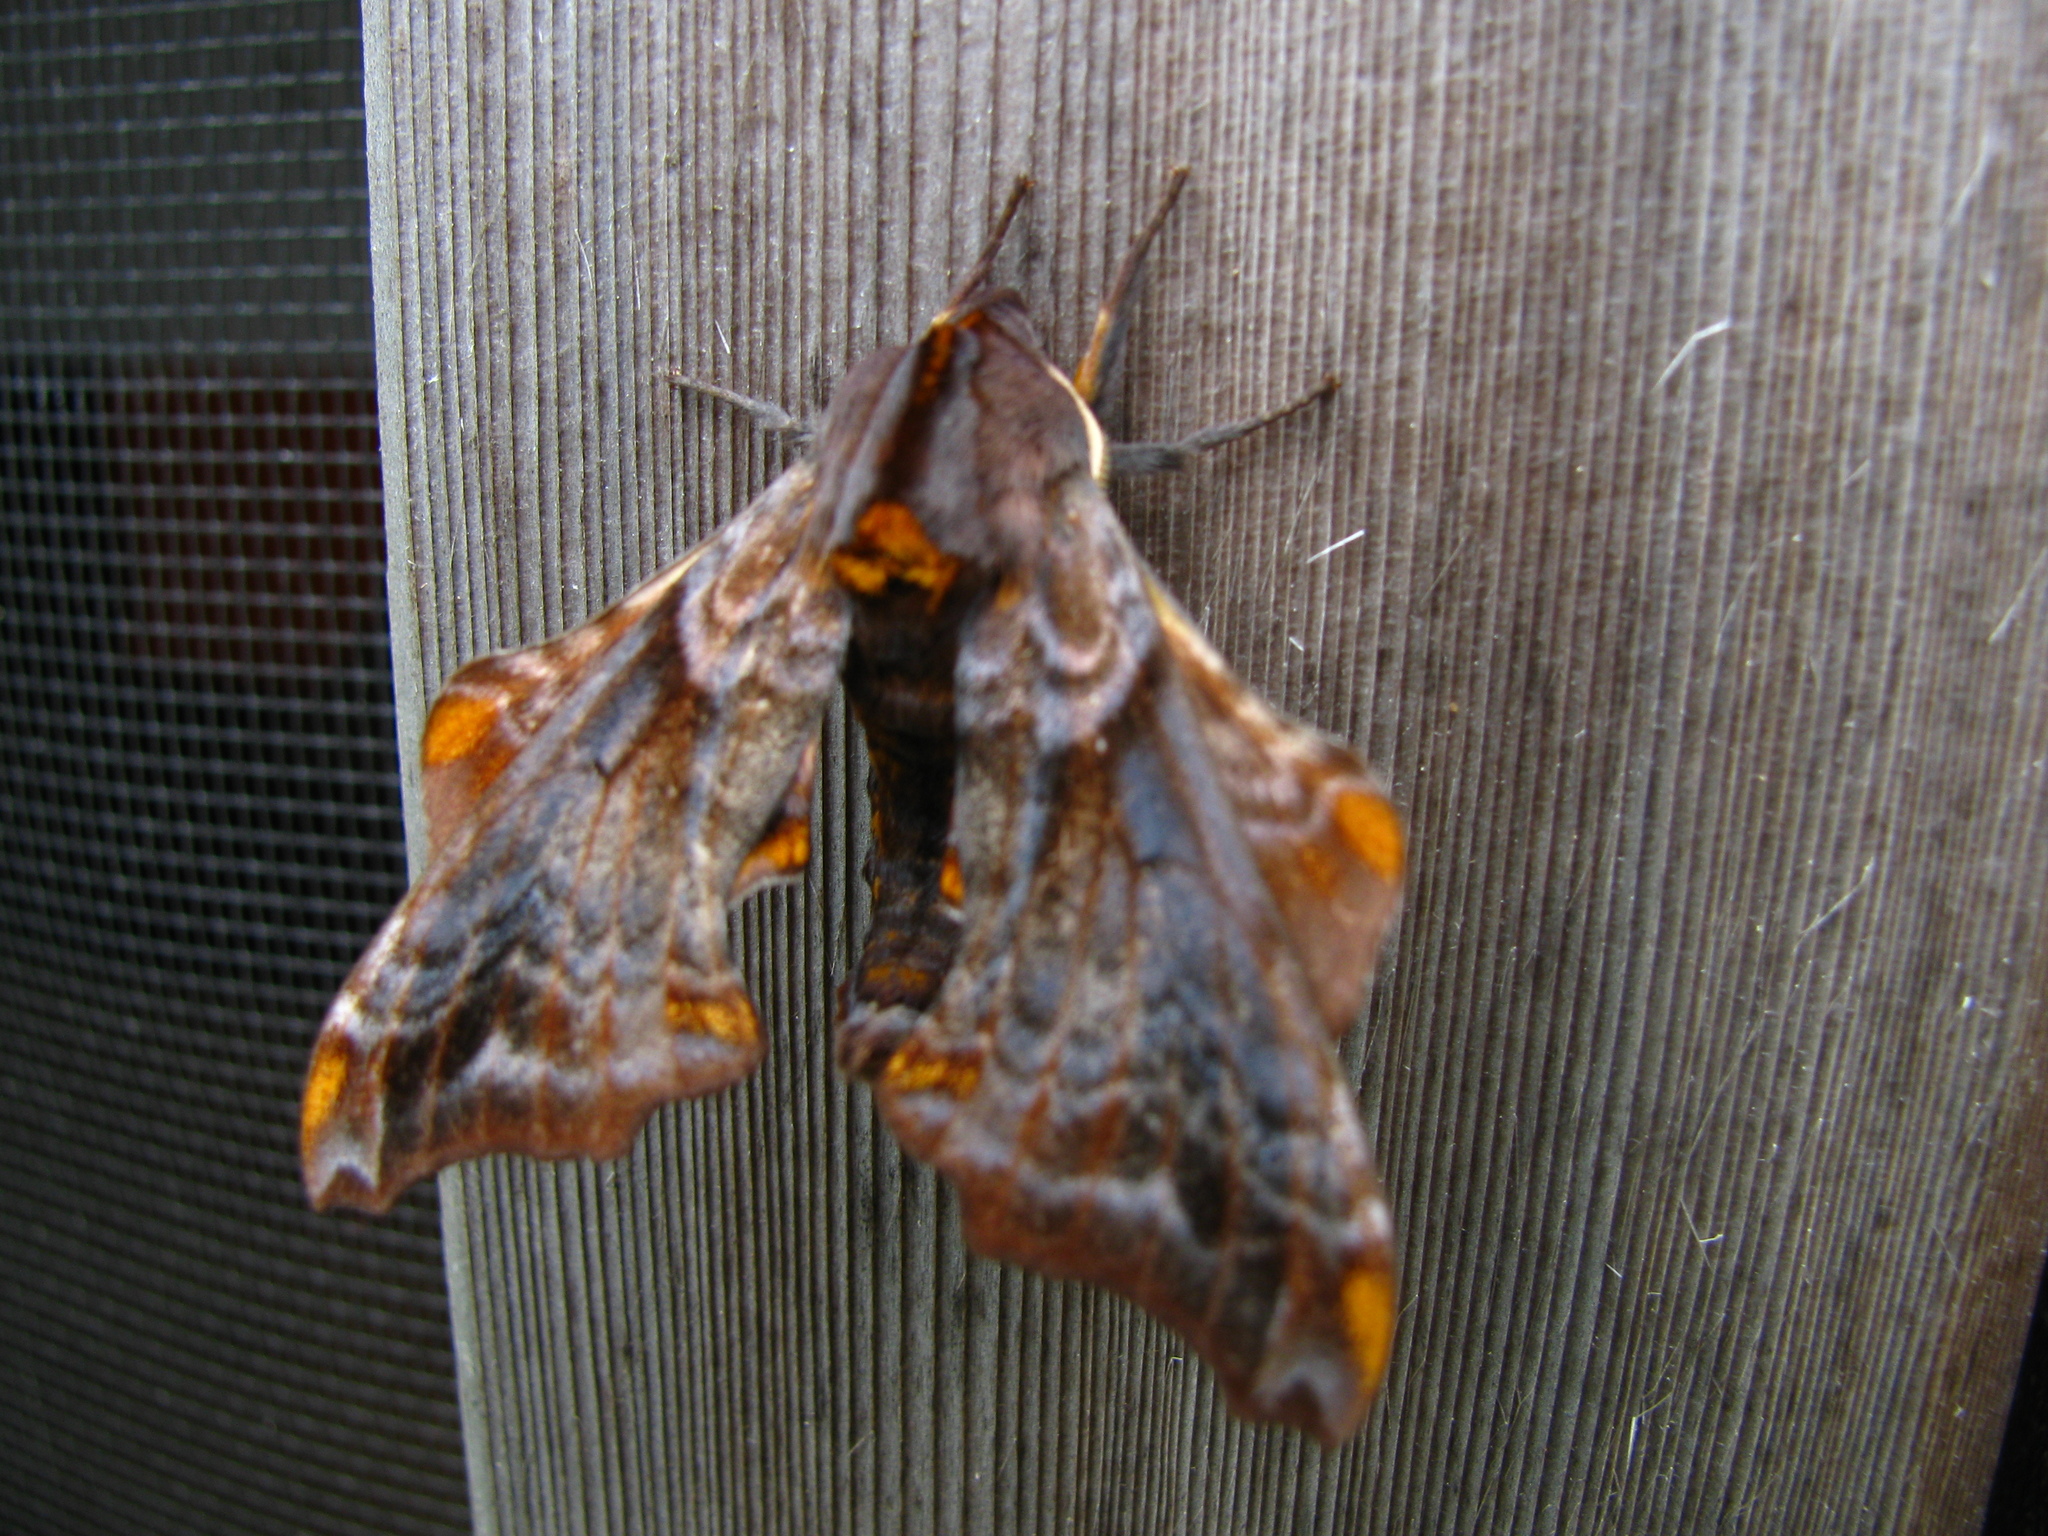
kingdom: Animalia
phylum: Arthropoda
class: Insecta
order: Lepidoptera
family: Sphingidae
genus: Paonias
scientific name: Paonias myops
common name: Small-eyed sphinx
